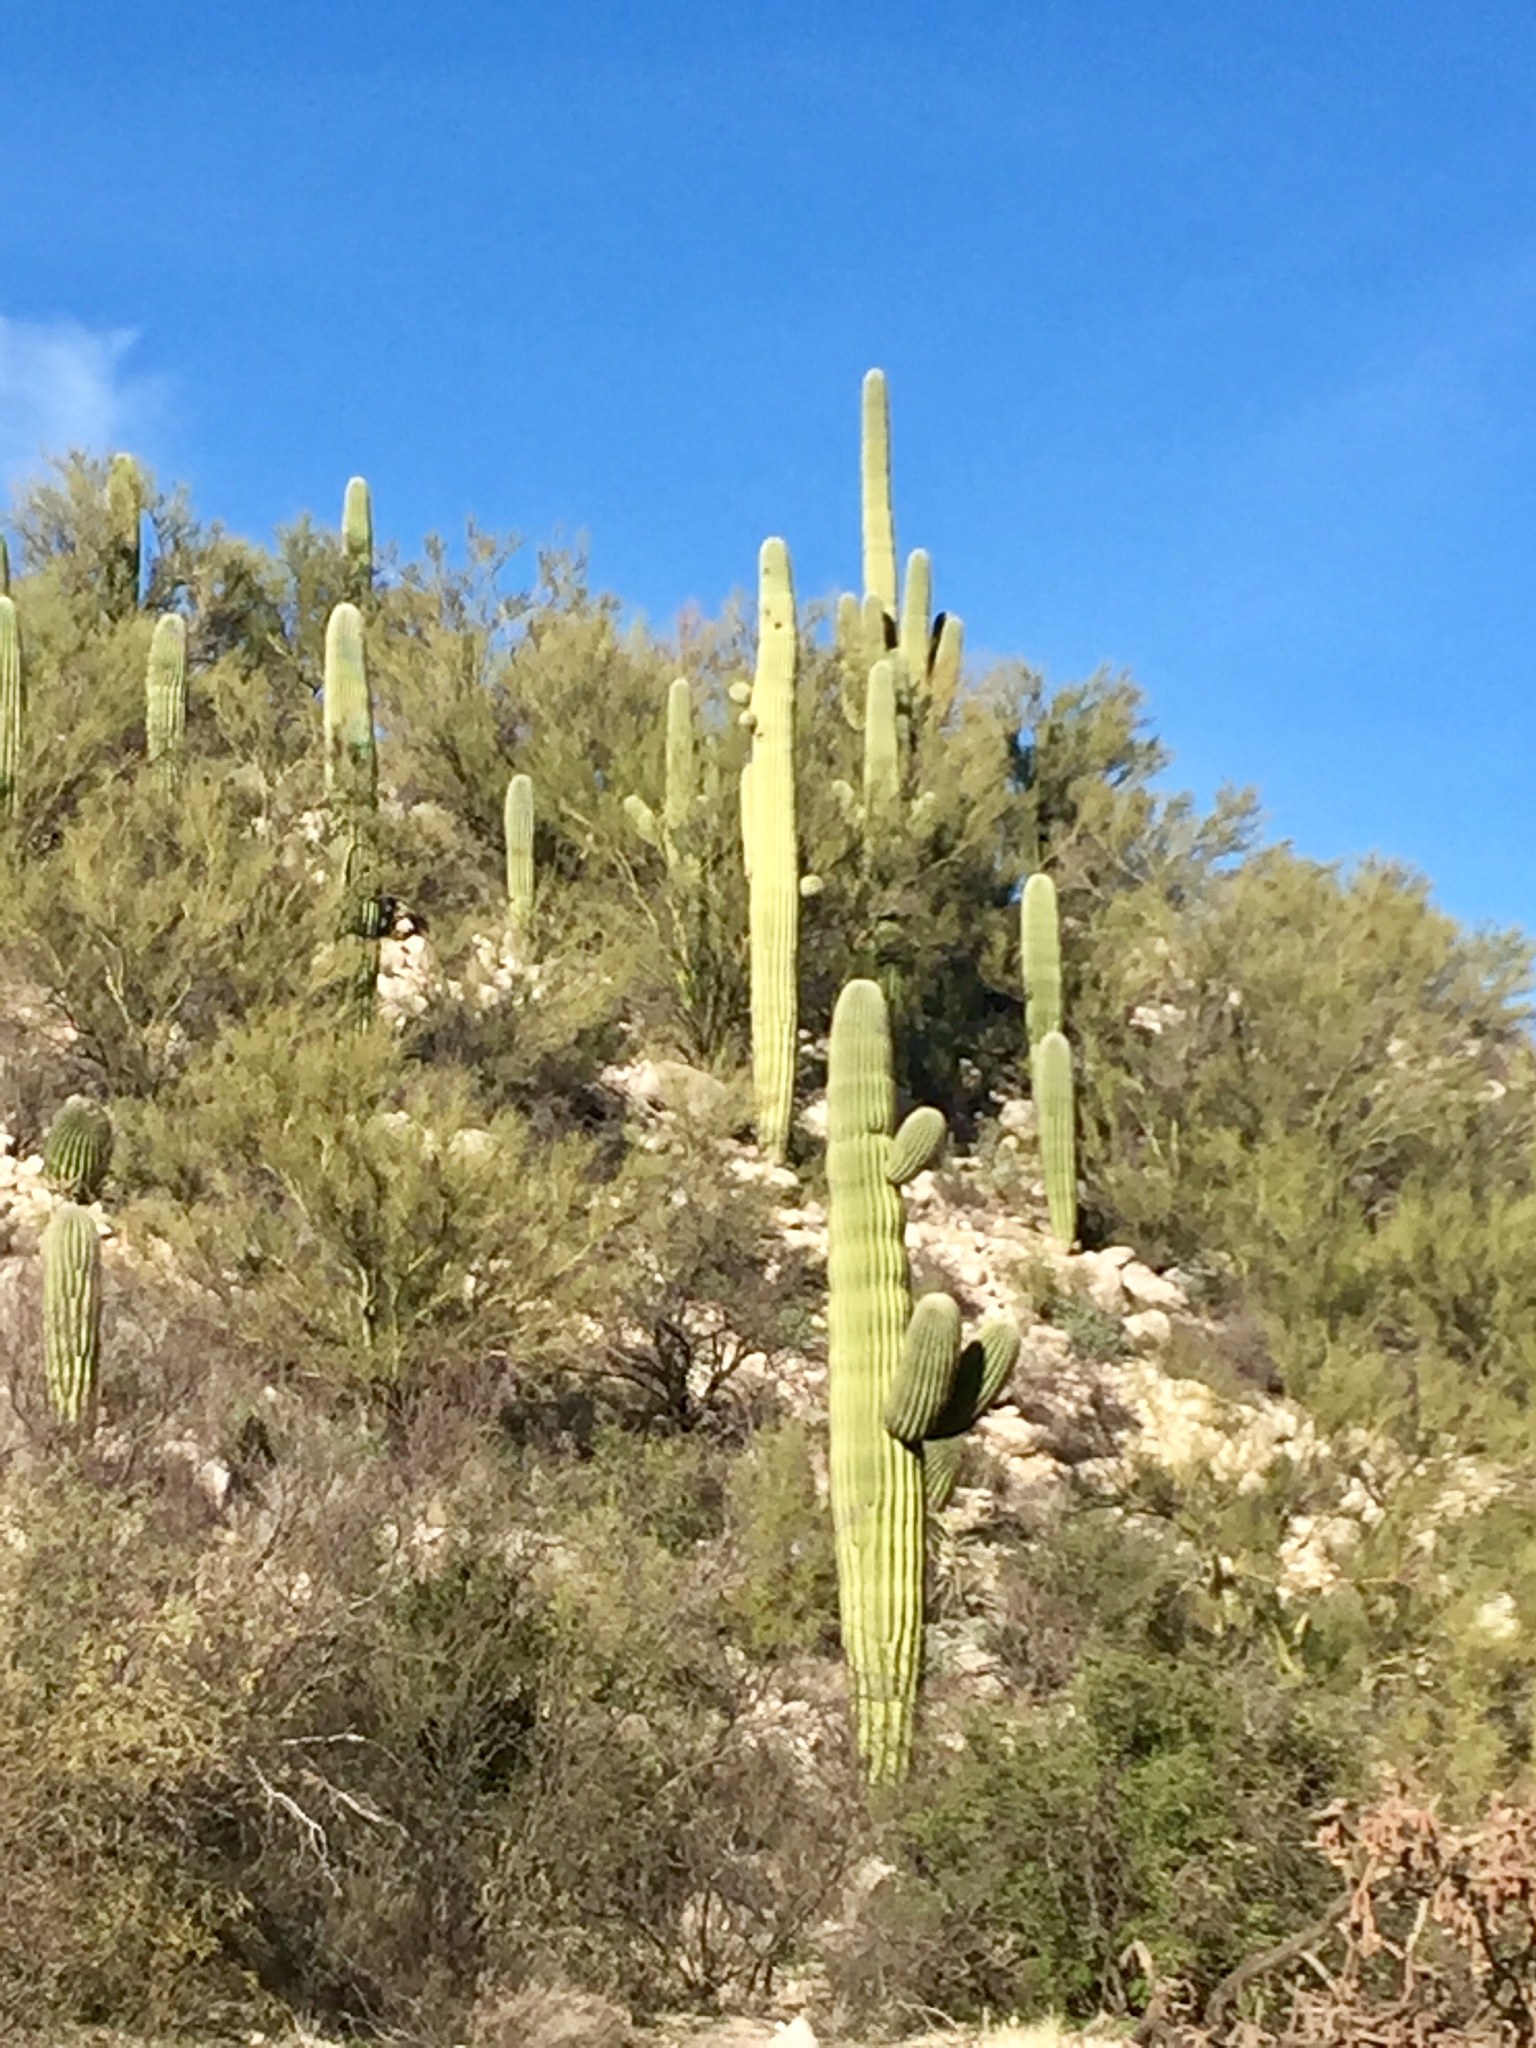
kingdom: Plantae
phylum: Tracheophyta
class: Magnoliopsida
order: Caryophyllales
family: Cactaceae
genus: Carnegiea
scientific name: Carnegiea gigantea
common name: Saguaro
